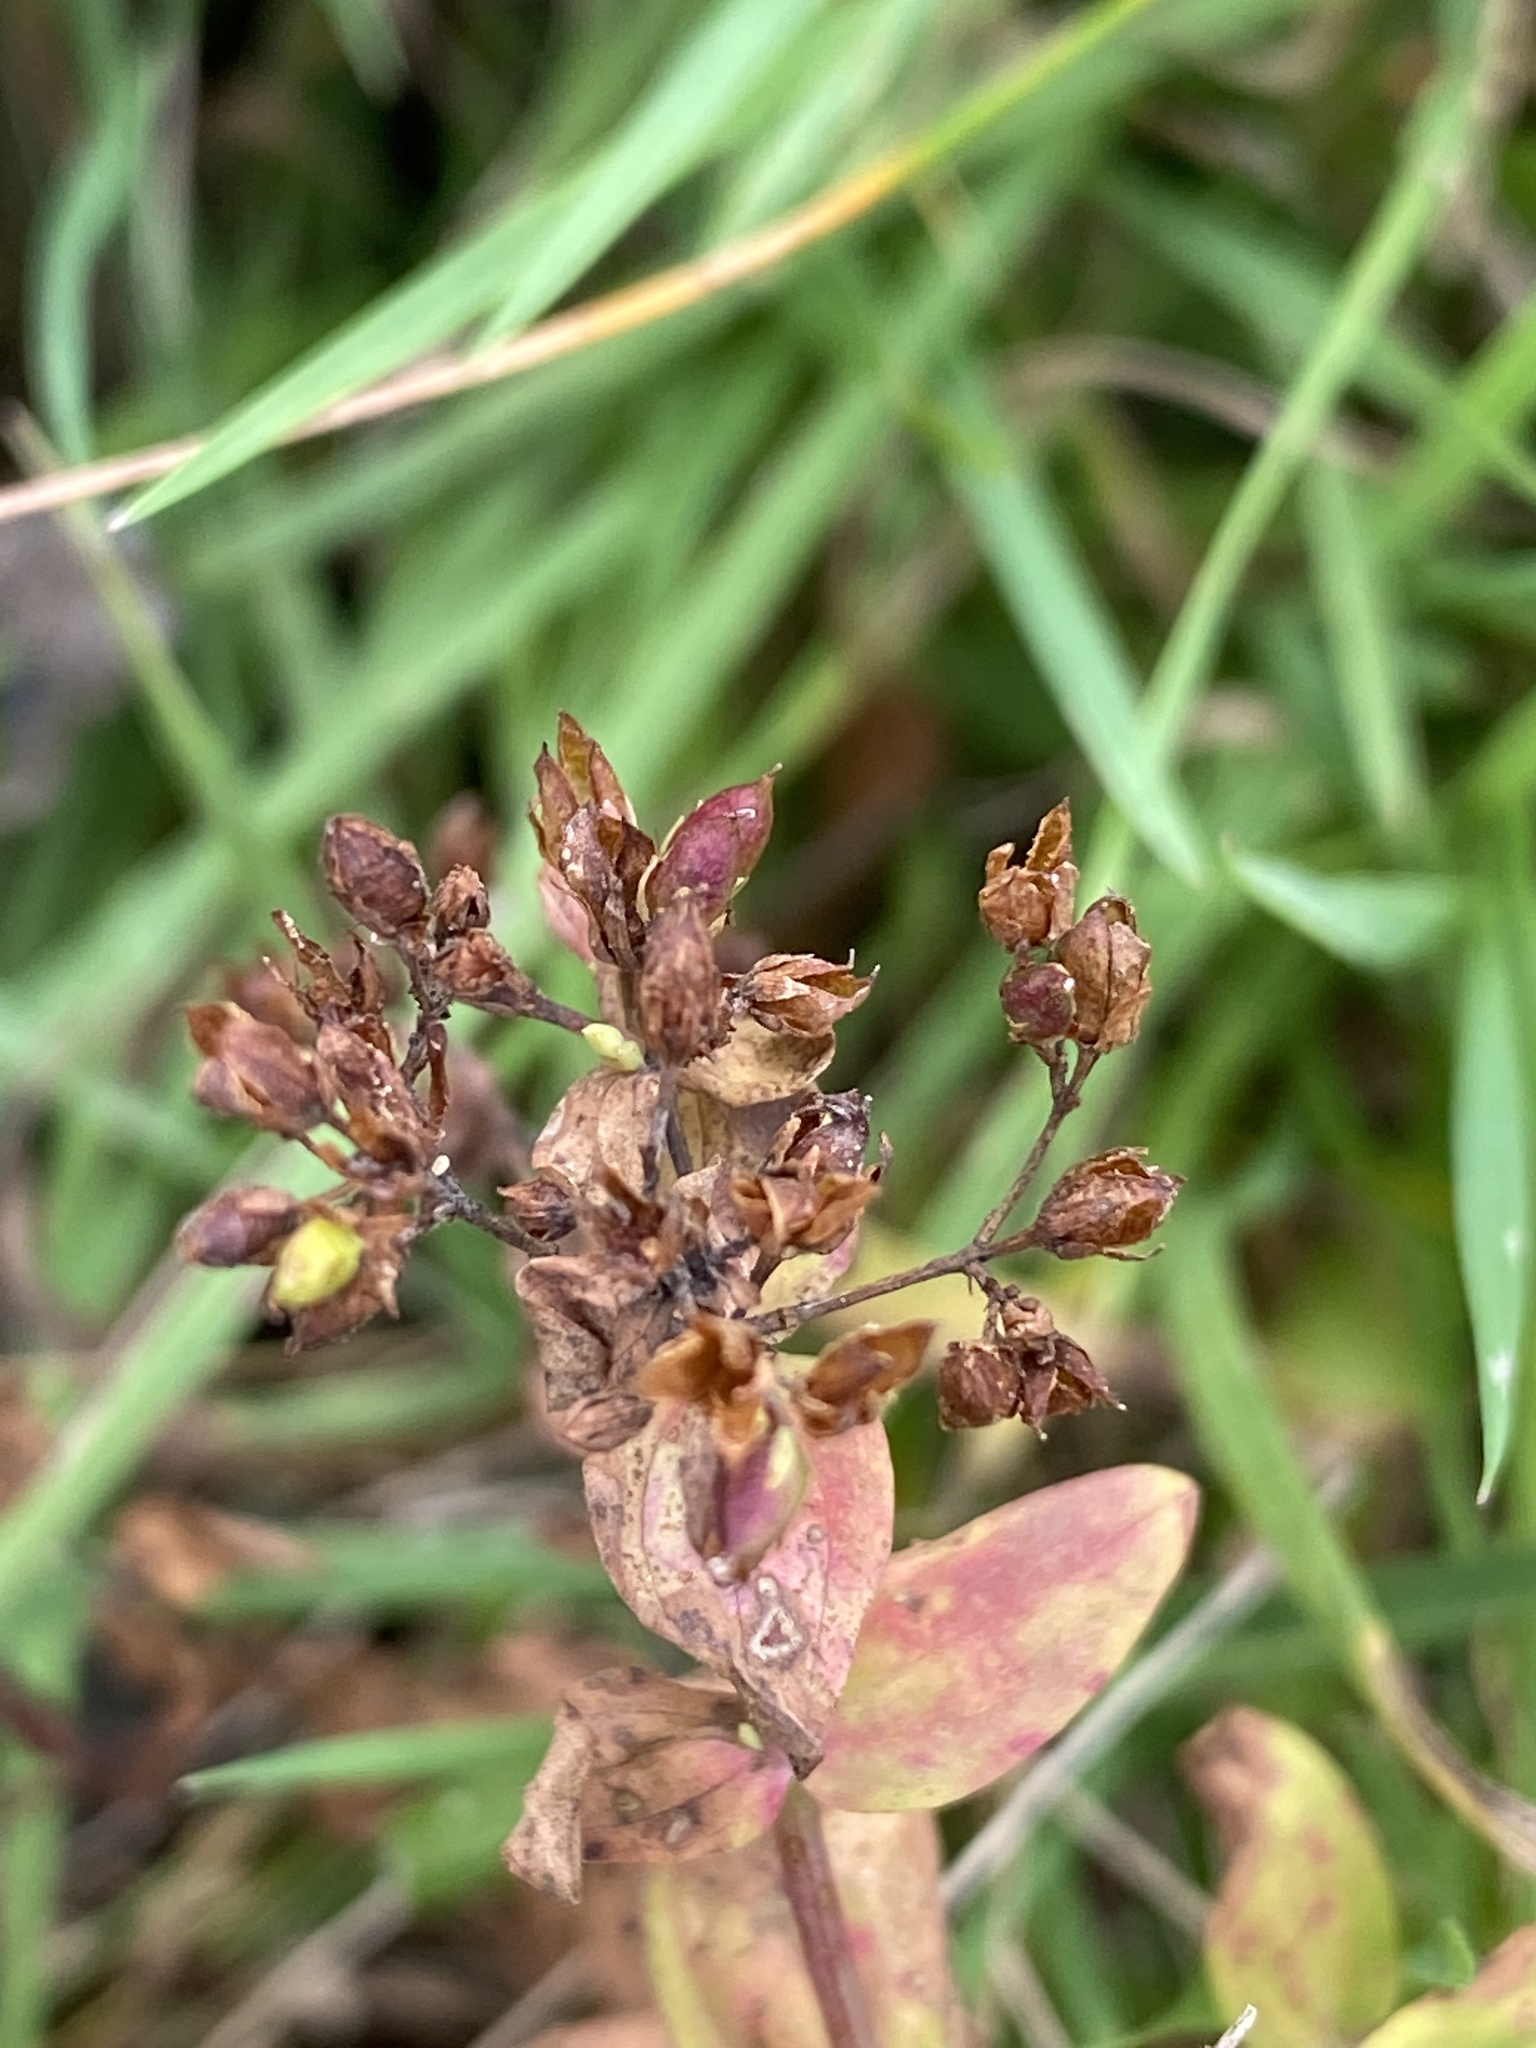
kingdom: Plantae
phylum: Tracheophyta
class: Magnoliopsida
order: Malpighiales
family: Hypericaceae
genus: Hypericum
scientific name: Hypericum mutilum
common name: Dwarf st. john's-wort
